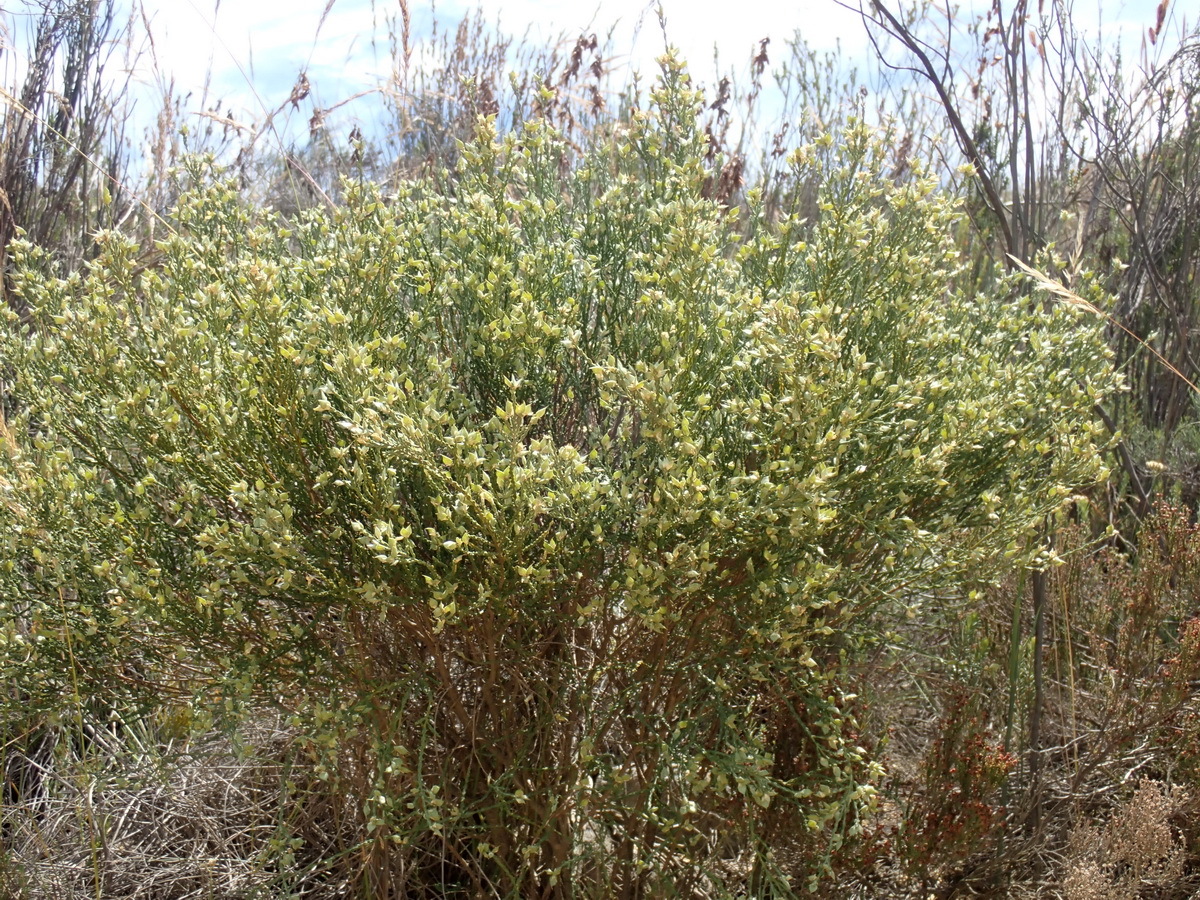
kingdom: Plantae
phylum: Tracheophyta
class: Magnoliopsida
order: Fabales
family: Fabaceae
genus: Amphithalea
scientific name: Amphithalea vlokii
